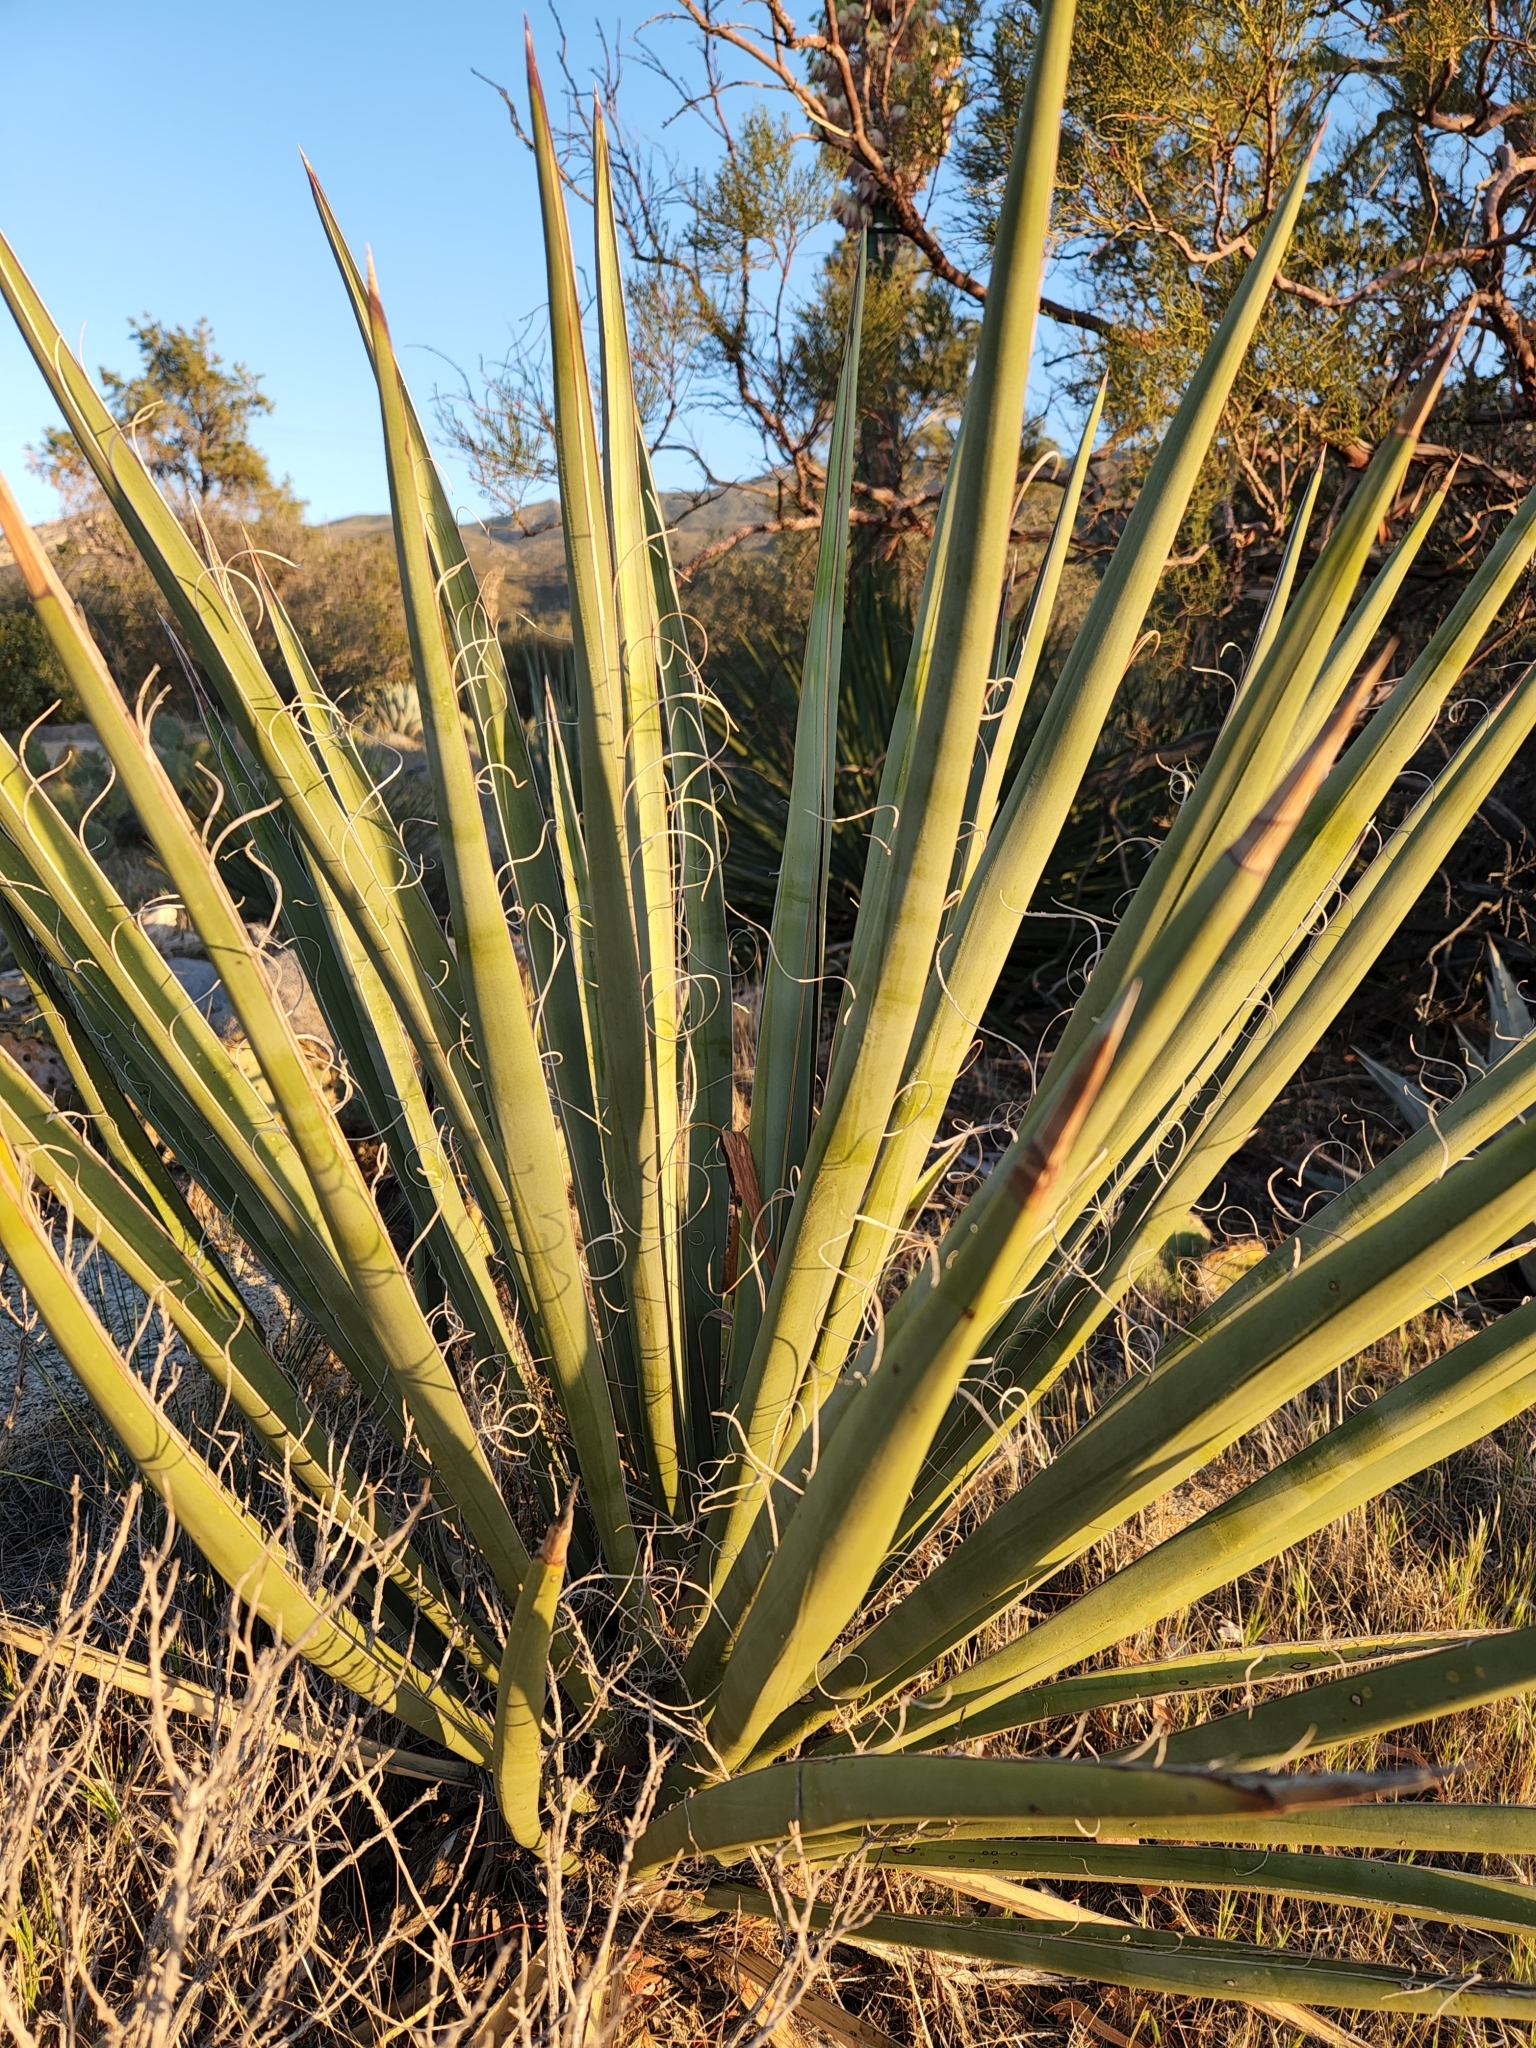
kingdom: Plantae
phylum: Tracheophyta
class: Liliopsida
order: Asparagales
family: Asparagaceae
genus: Yucca
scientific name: Yucca schidigera
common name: Mojave yucca
